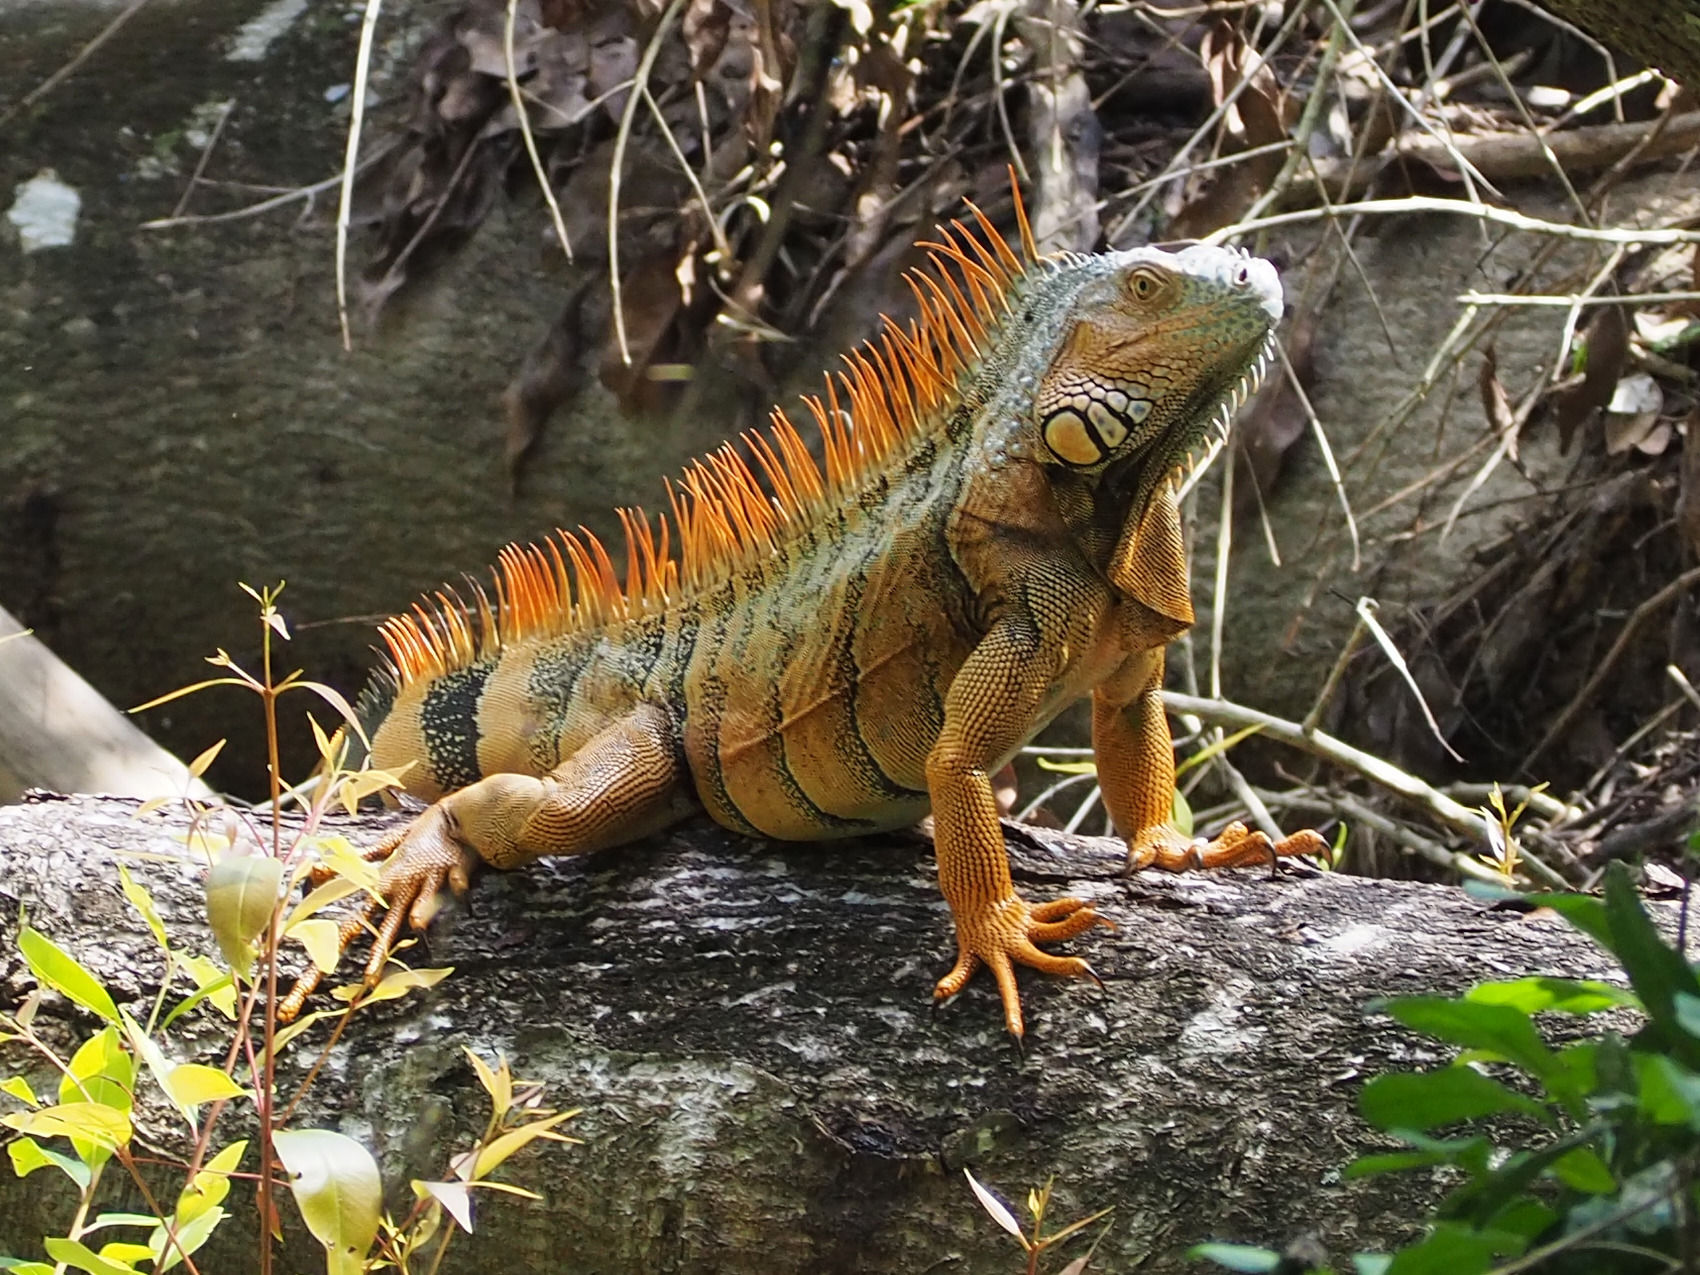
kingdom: Animalia
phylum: Chordata
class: Squamata
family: Iguanidae
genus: Iguana
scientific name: Iguana iguana
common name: Green iguana
